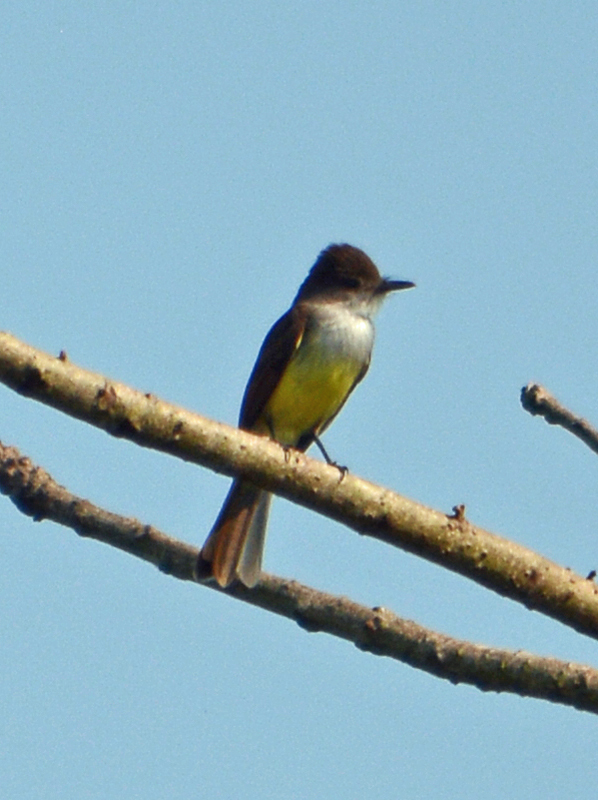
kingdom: Animalia
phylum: Chordata
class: Aves
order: Passeriformes
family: Tyrannidae
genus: Myiarchus
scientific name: Myiarchus tuberculifer
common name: Dusky-capped flycatcher
